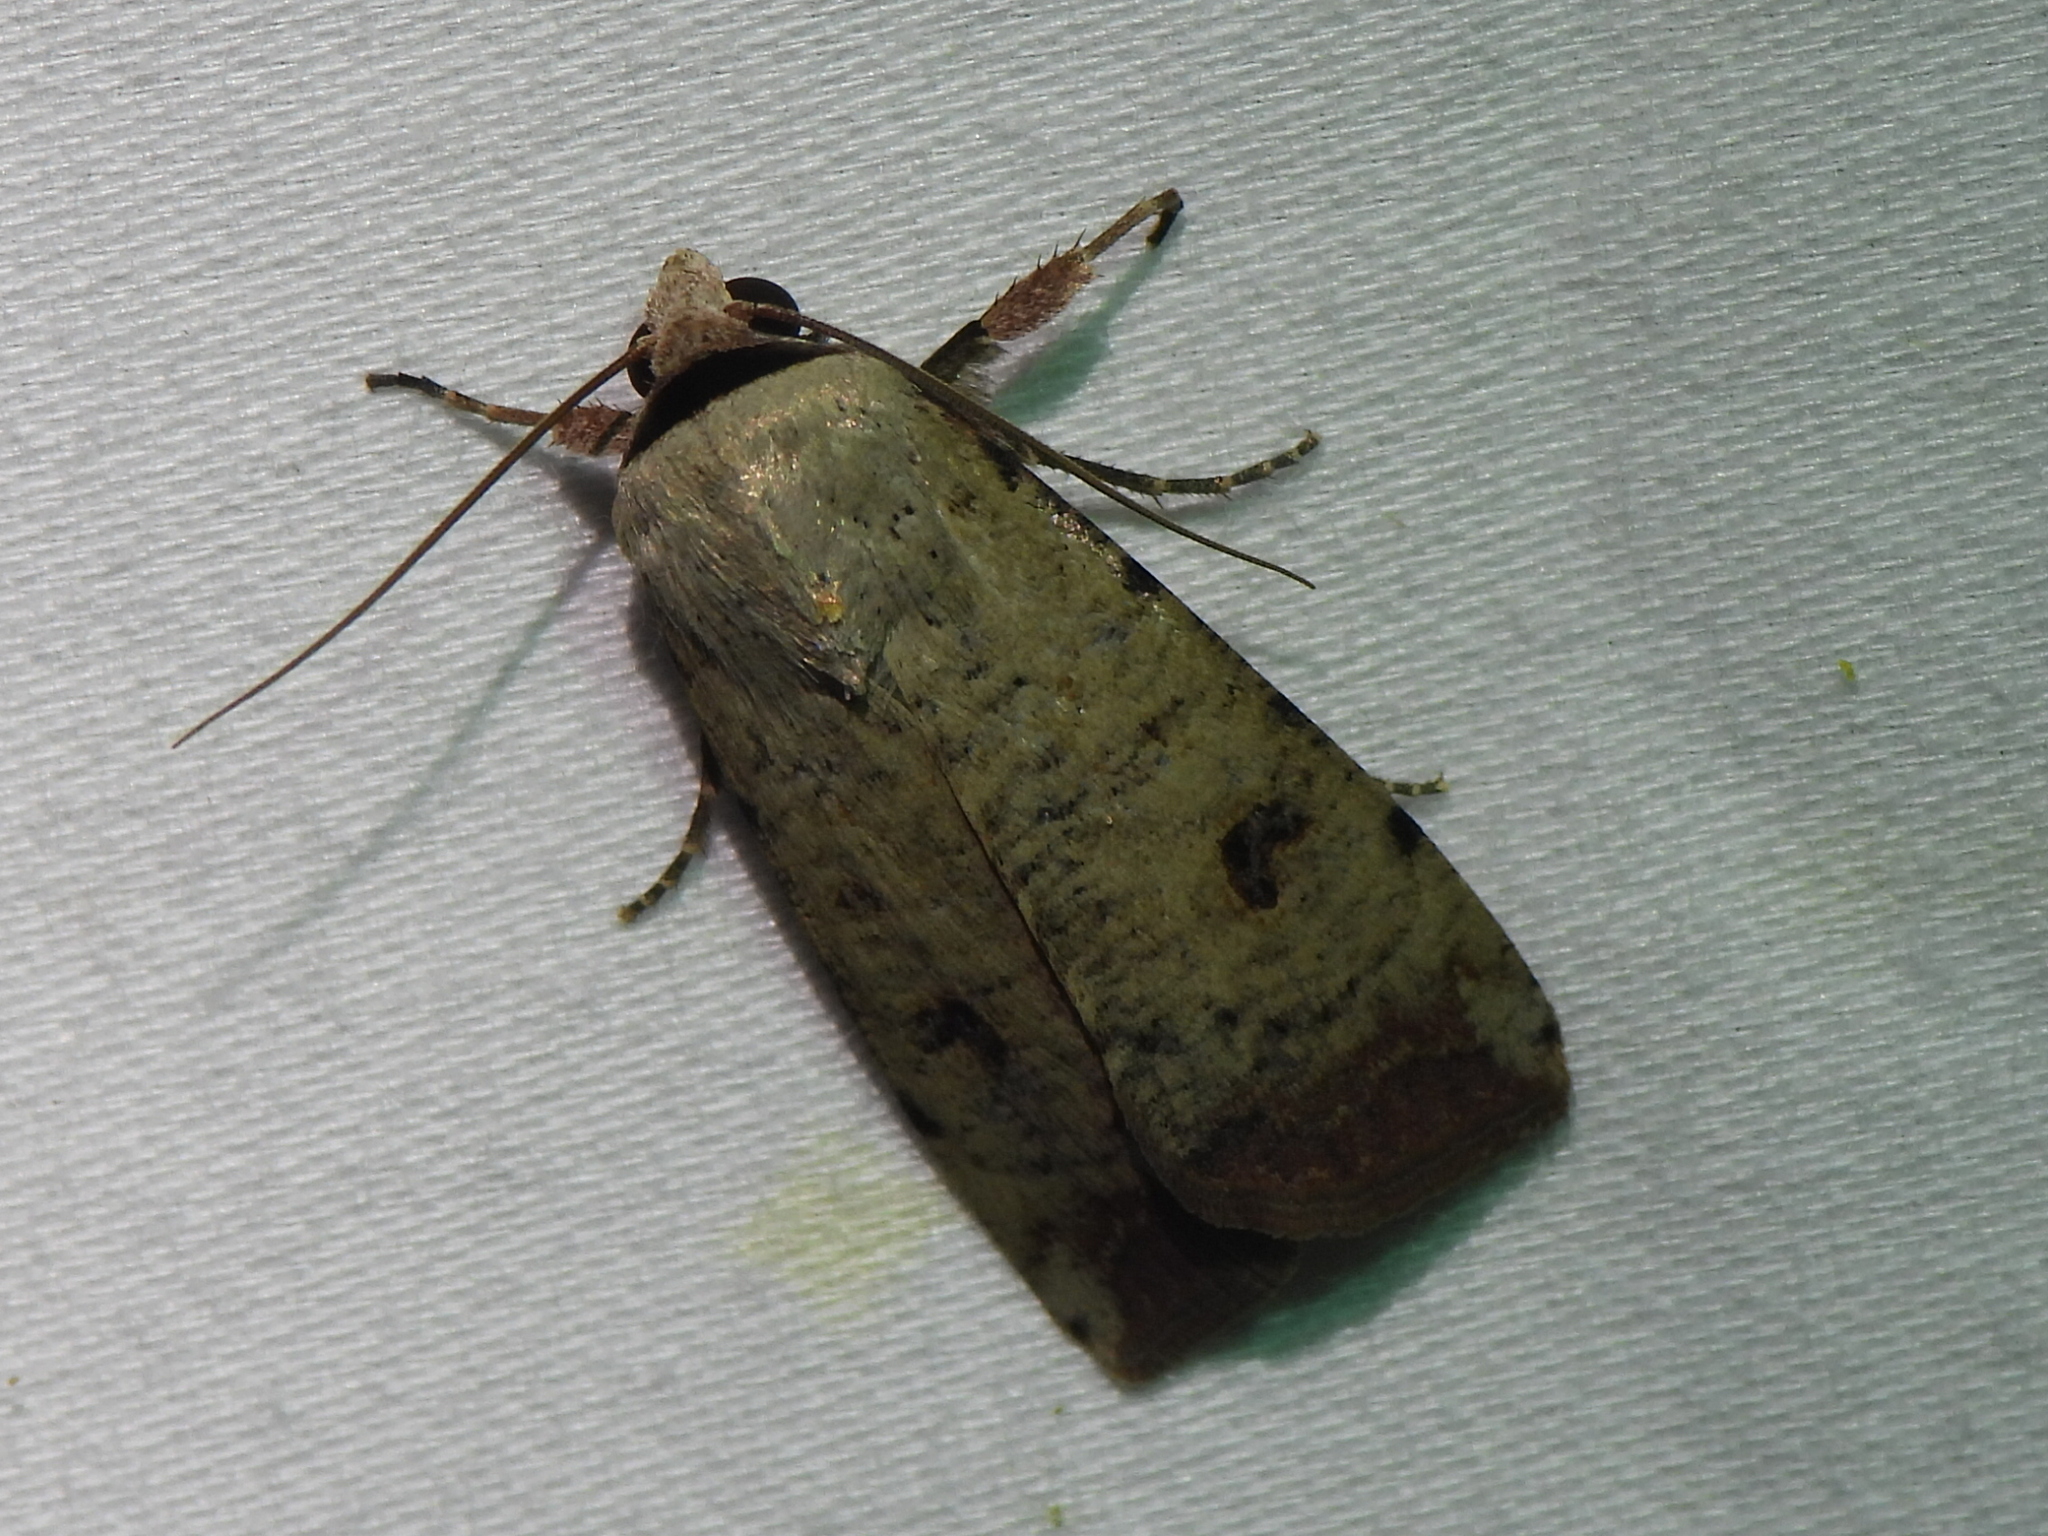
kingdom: Animalia
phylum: Arthropoda
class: Insecta
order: Lepidoptera
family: Noctuidae
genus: Anicla
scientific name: Anicla infecta
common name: Green cutworm
